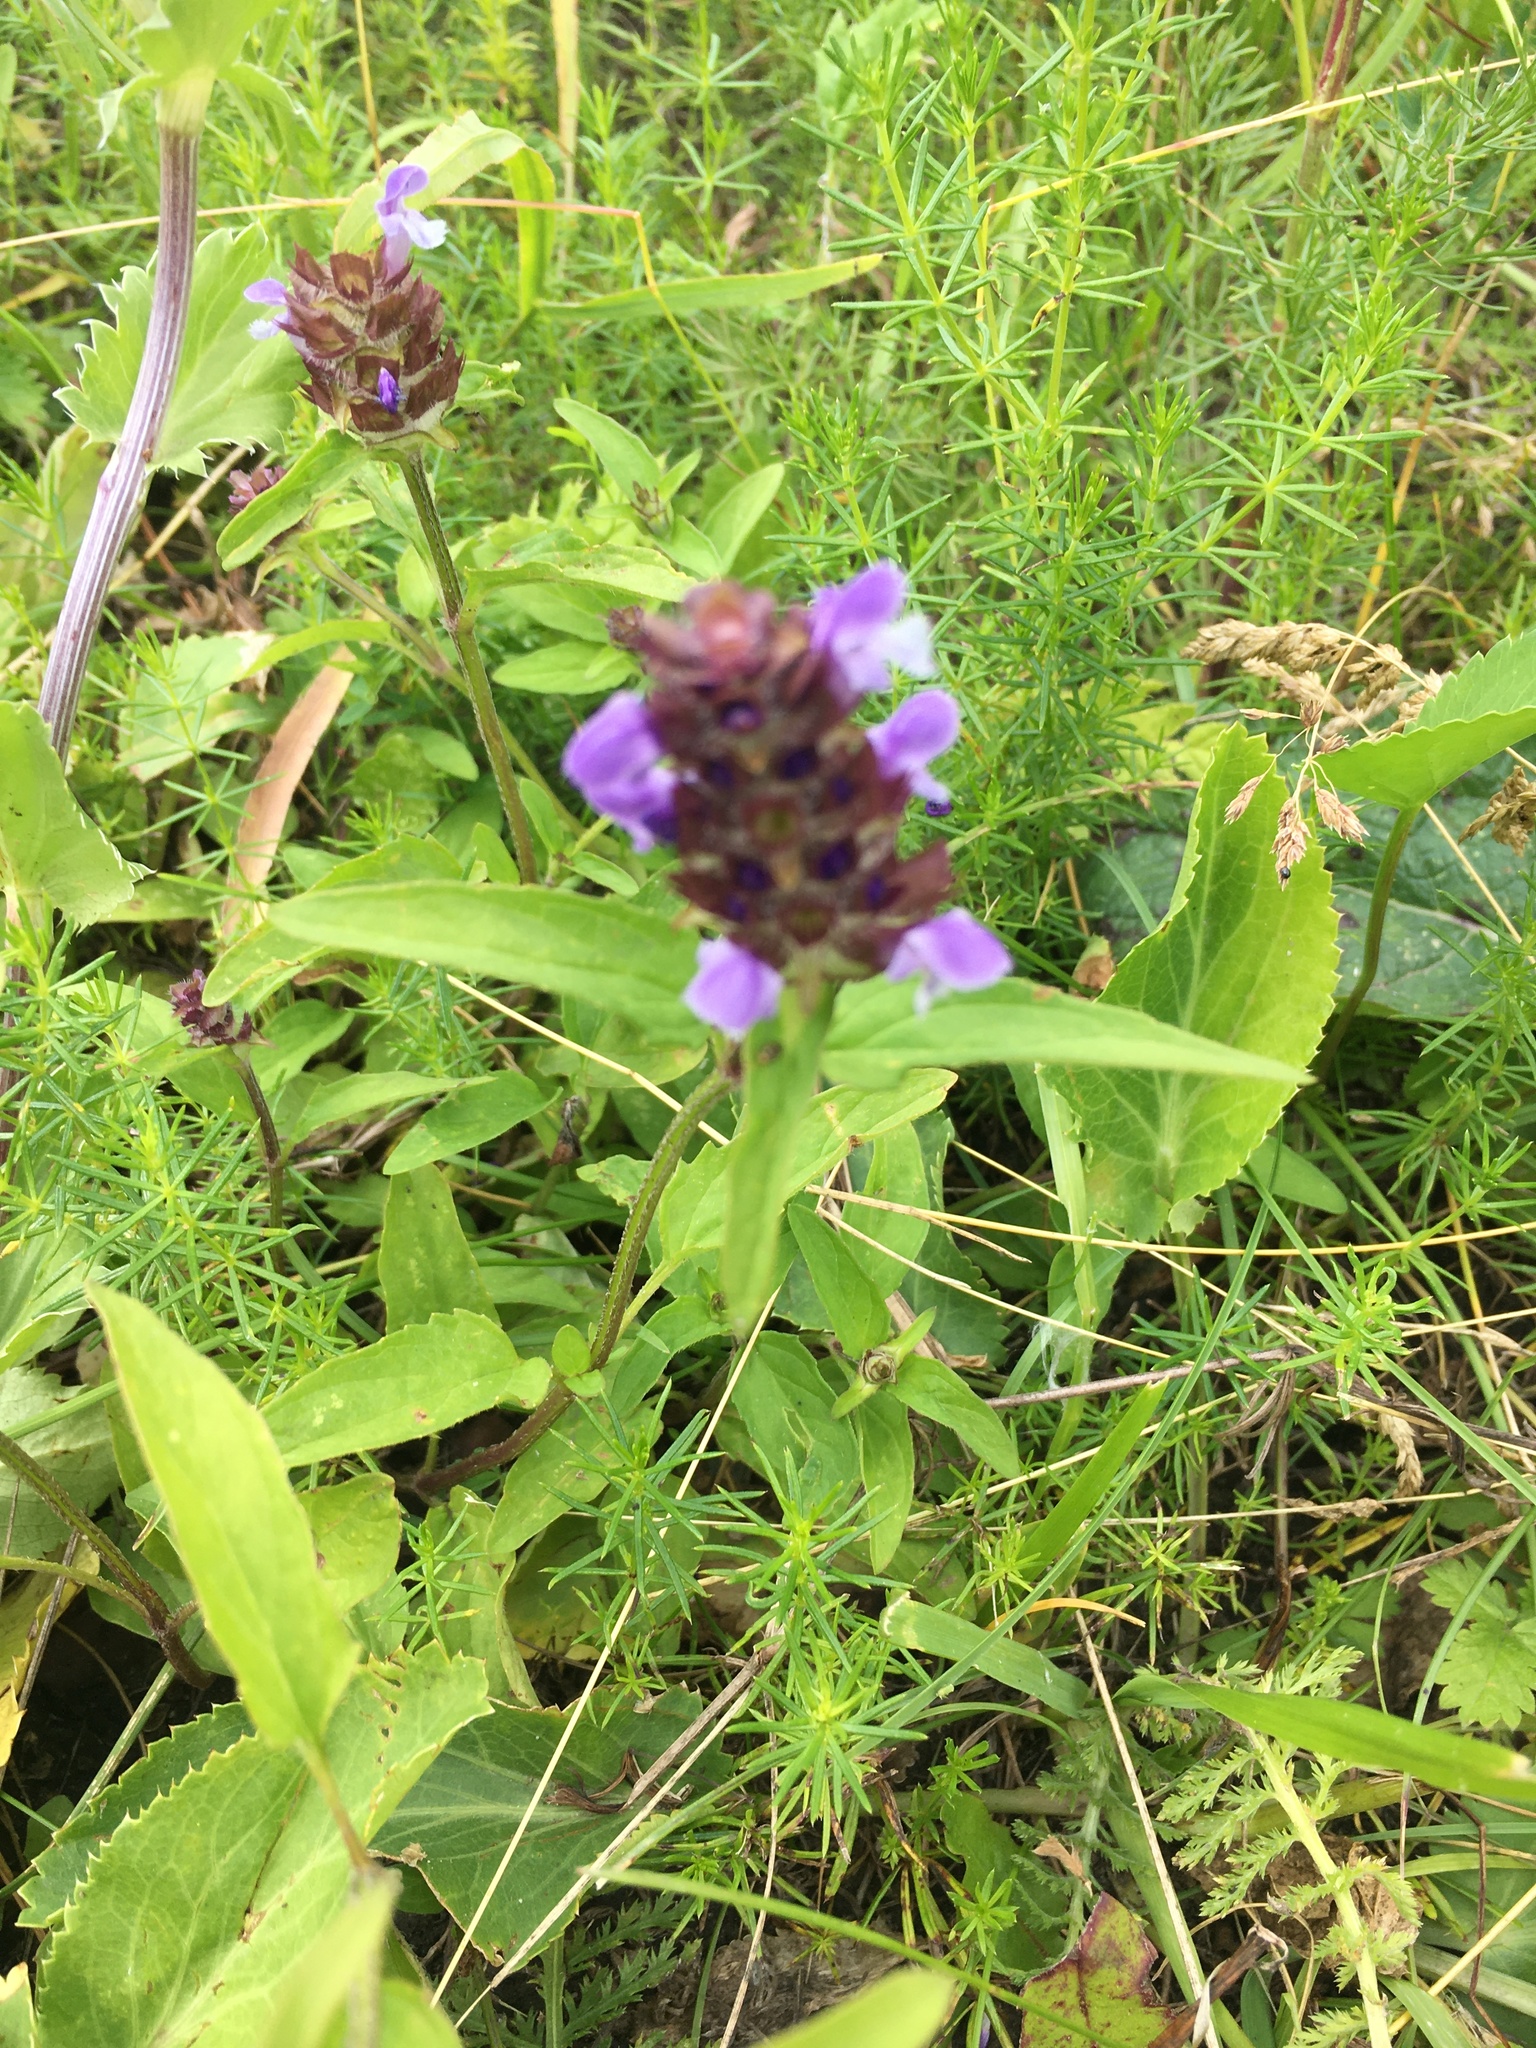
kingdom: Plantae
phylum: Tracheophyta
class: Magnoliopsida
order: Lamiales
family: Lamiaceae
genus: Prunella
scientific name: Prunella vulgaris
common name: Heal-all
